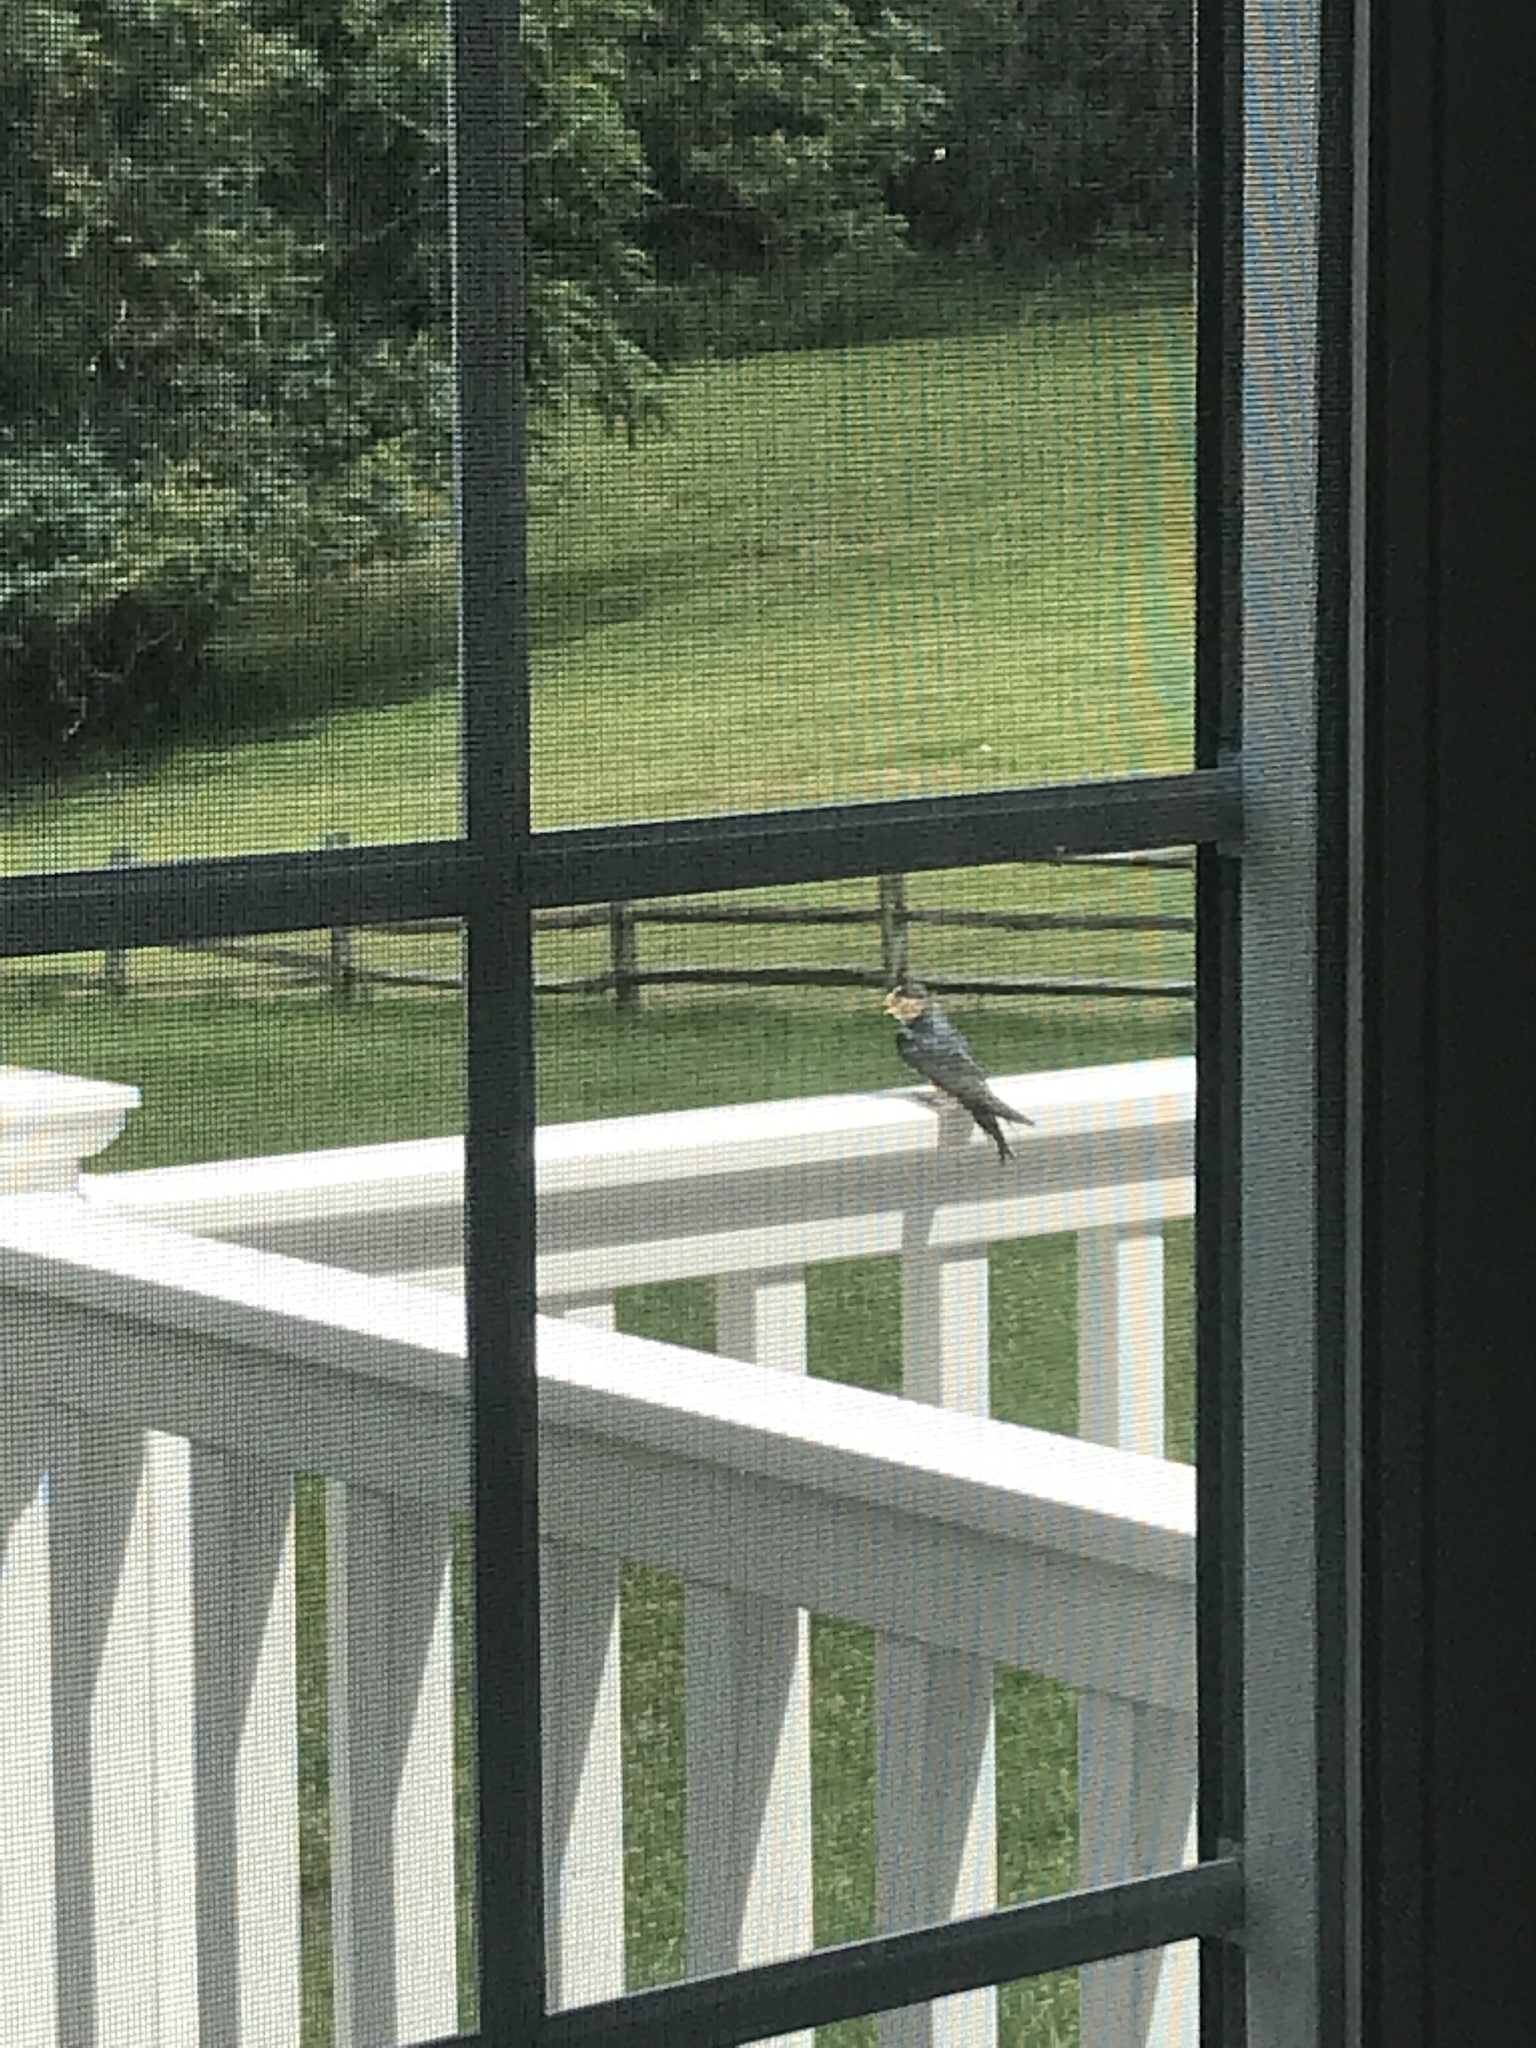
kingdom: Animalia
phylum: Chordata
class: Aves
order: Passeriformes
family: Hirundinidae
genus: Hirundo
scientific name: Hirundo rustica
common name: Barn swallow
